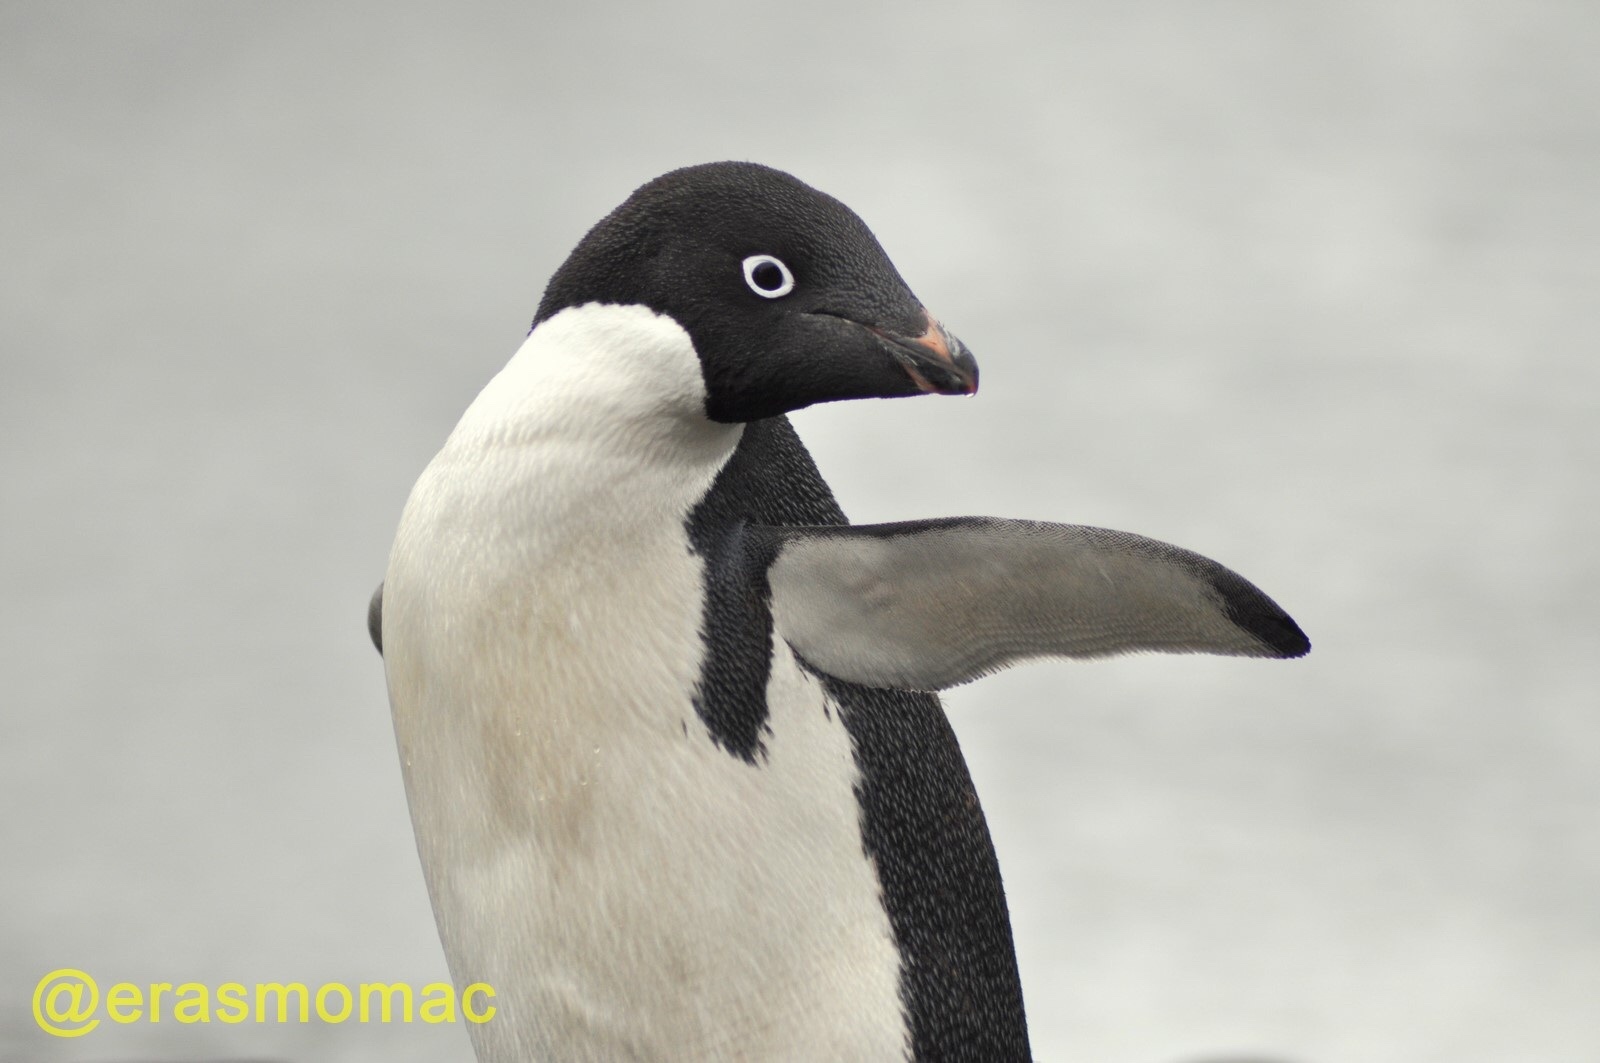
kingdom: Animalia
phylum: Chordata
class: Aves
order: Sphenisciformes
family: Spheniscidae
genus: Pygoscelis
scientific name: Pygoscelis adeliae
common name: Adelie penguin
